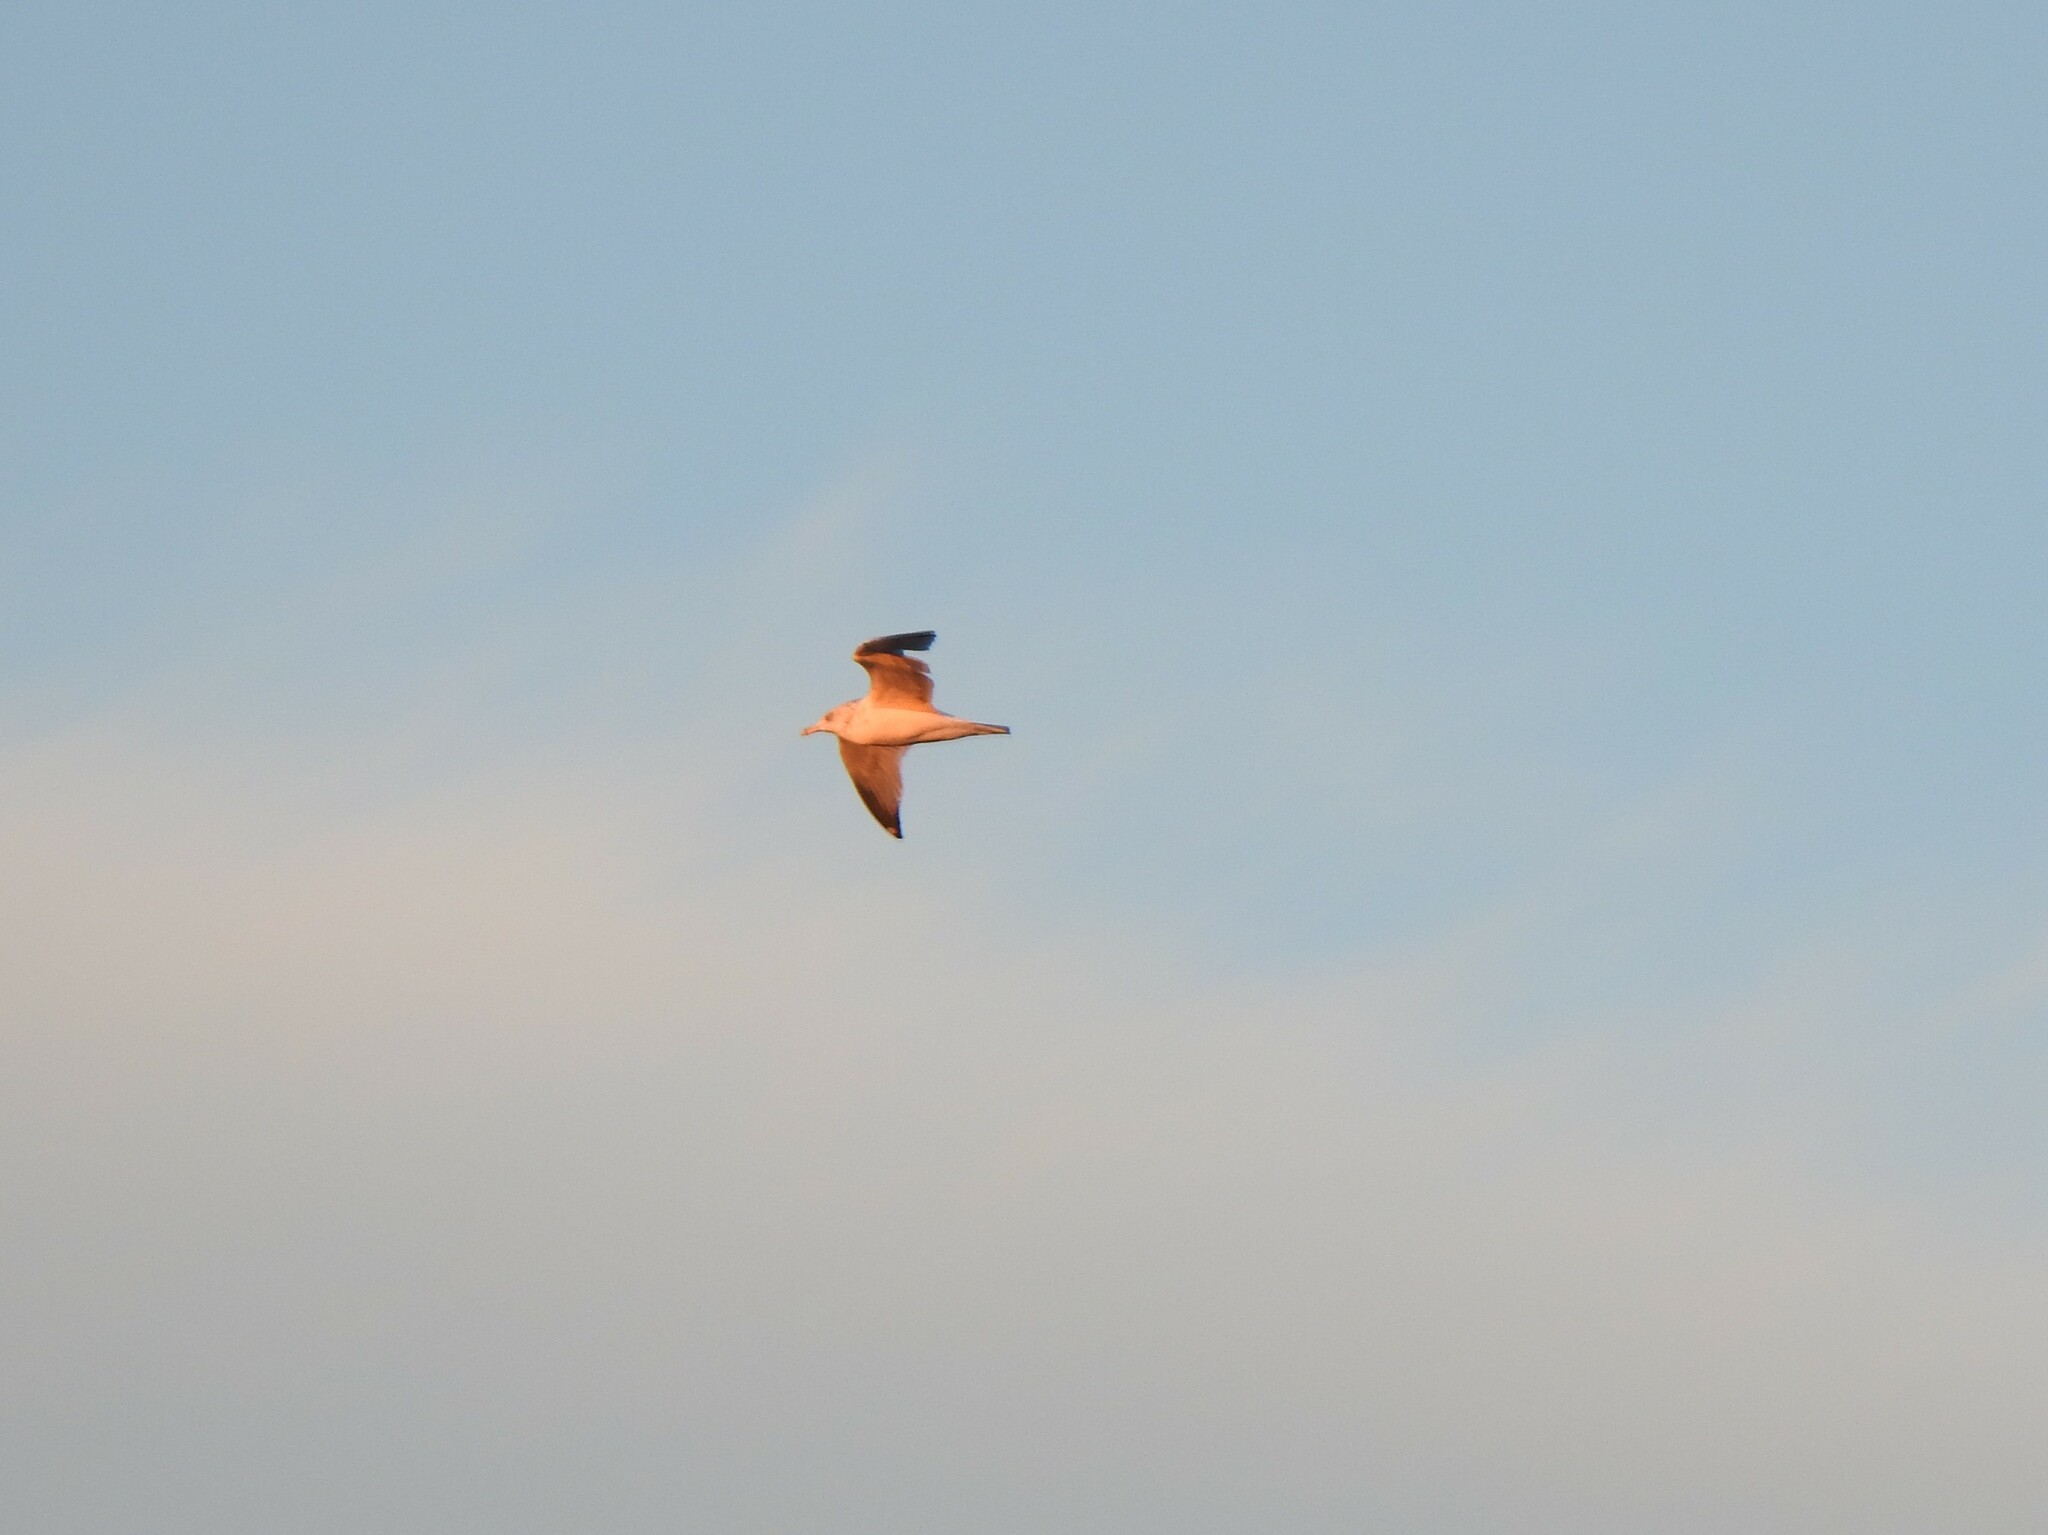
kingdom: Animalia
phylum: Chordata
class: Aves
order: Charadriiformes
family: Laridae
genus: Larus
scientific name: Larus delawarensis
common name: Ring-billed gull
